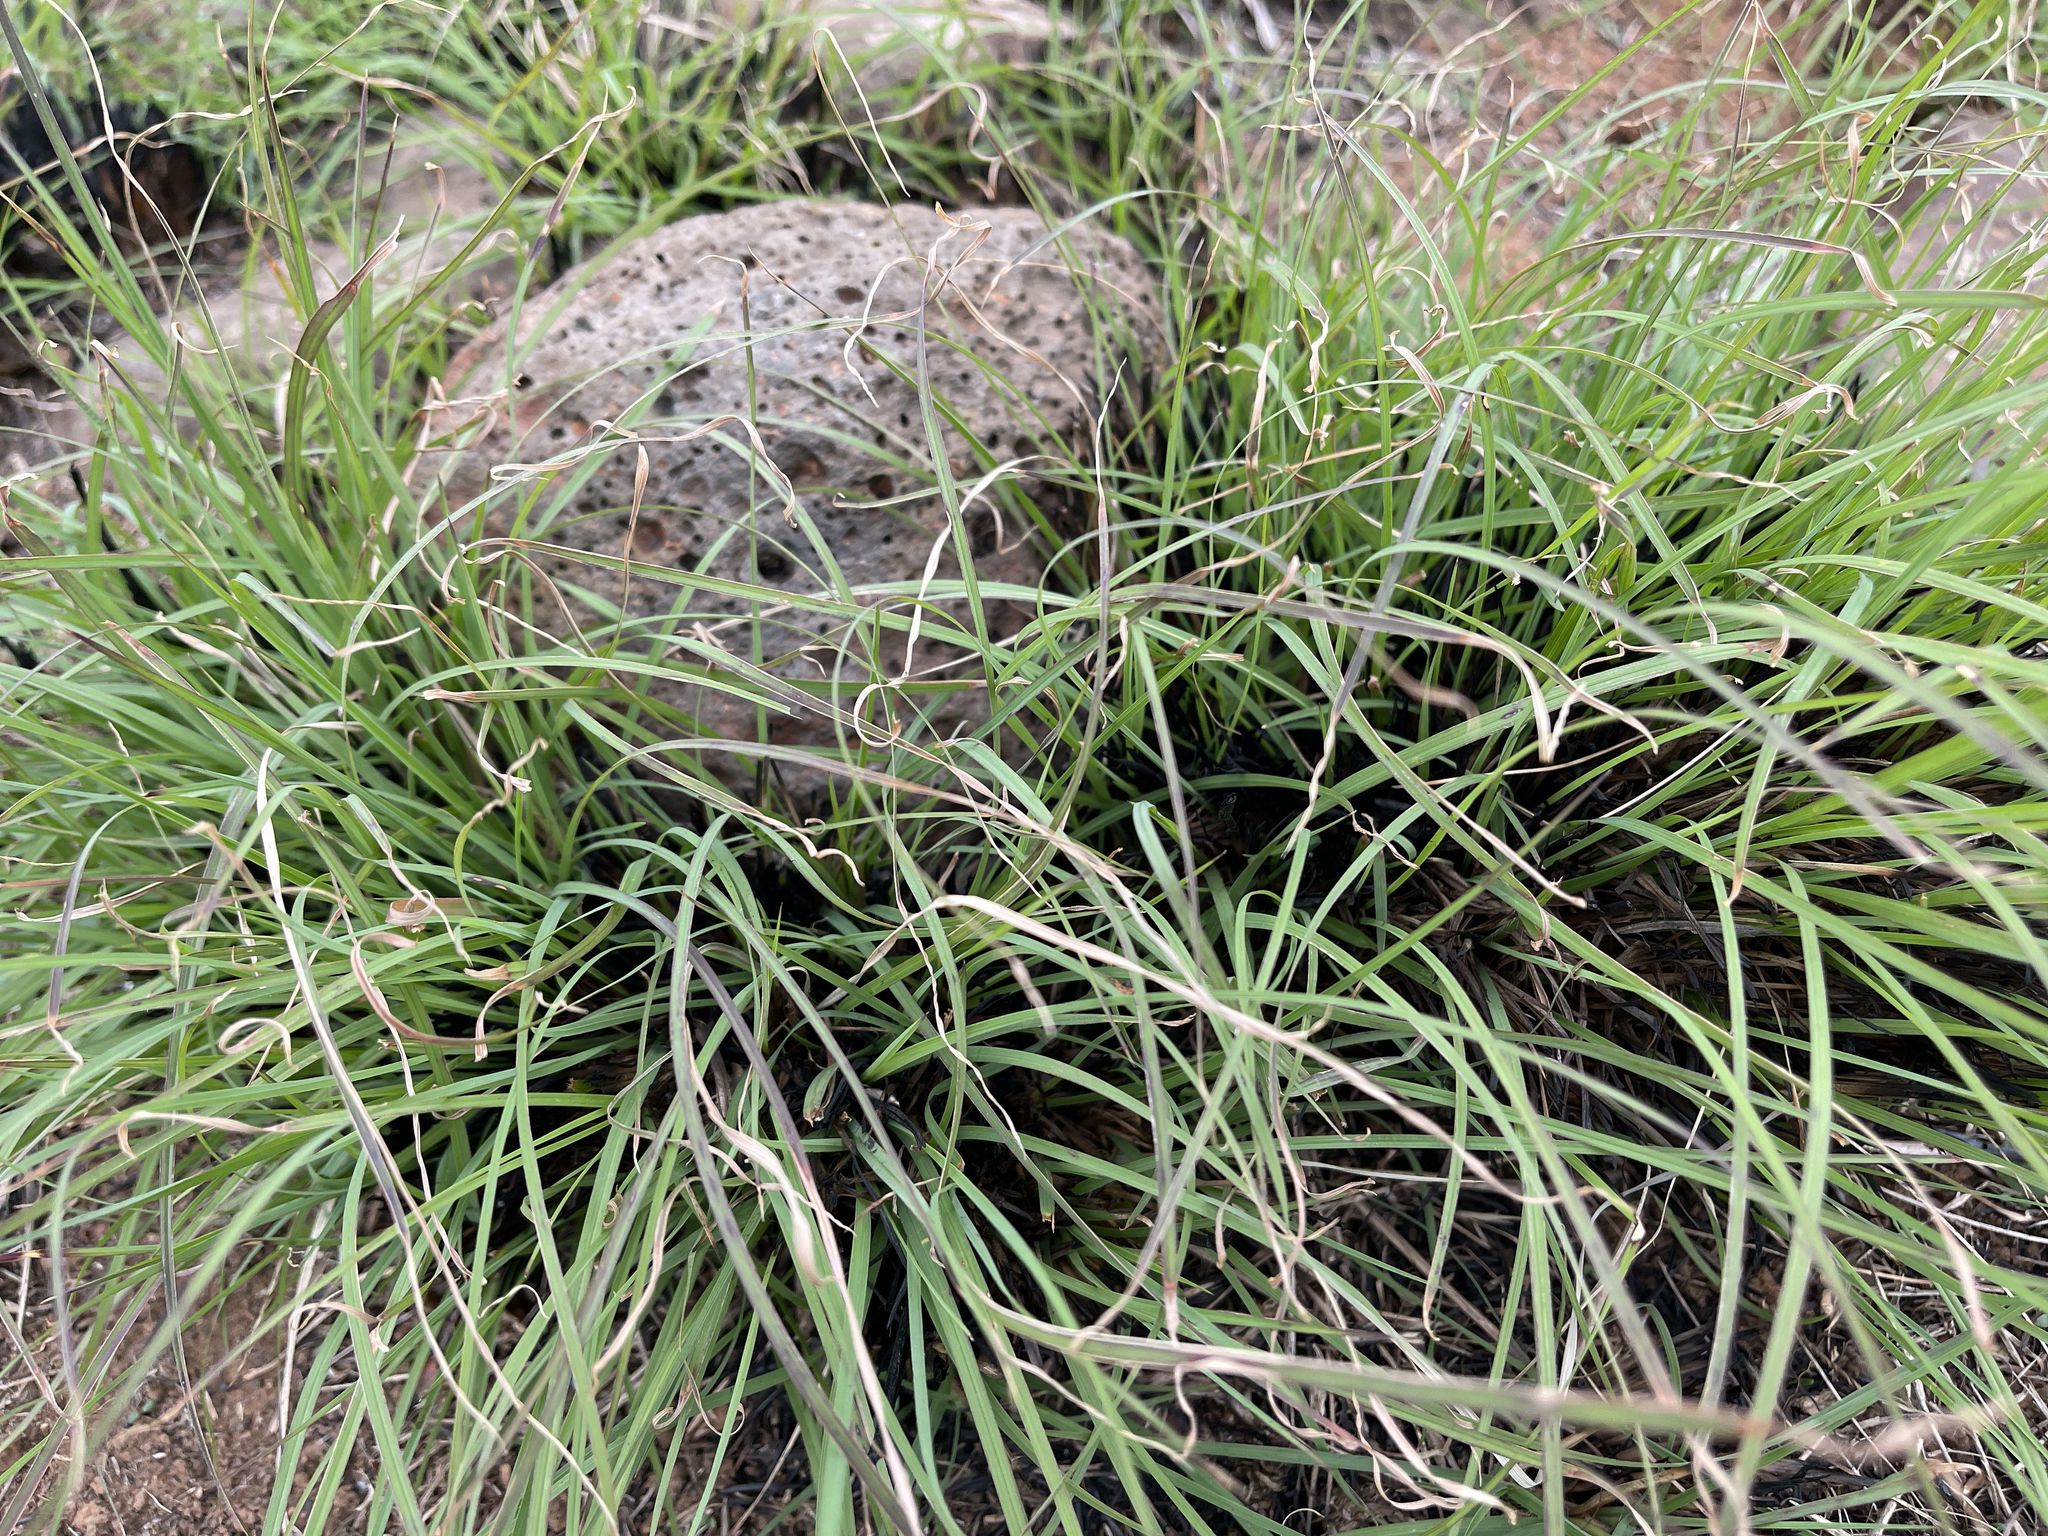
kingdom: Plantae
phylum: Tracheophyta
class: Liliopsida
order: Poales
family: Poaceae
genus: Themeda
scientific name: Themeda triandra
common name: Kangaroo grass
